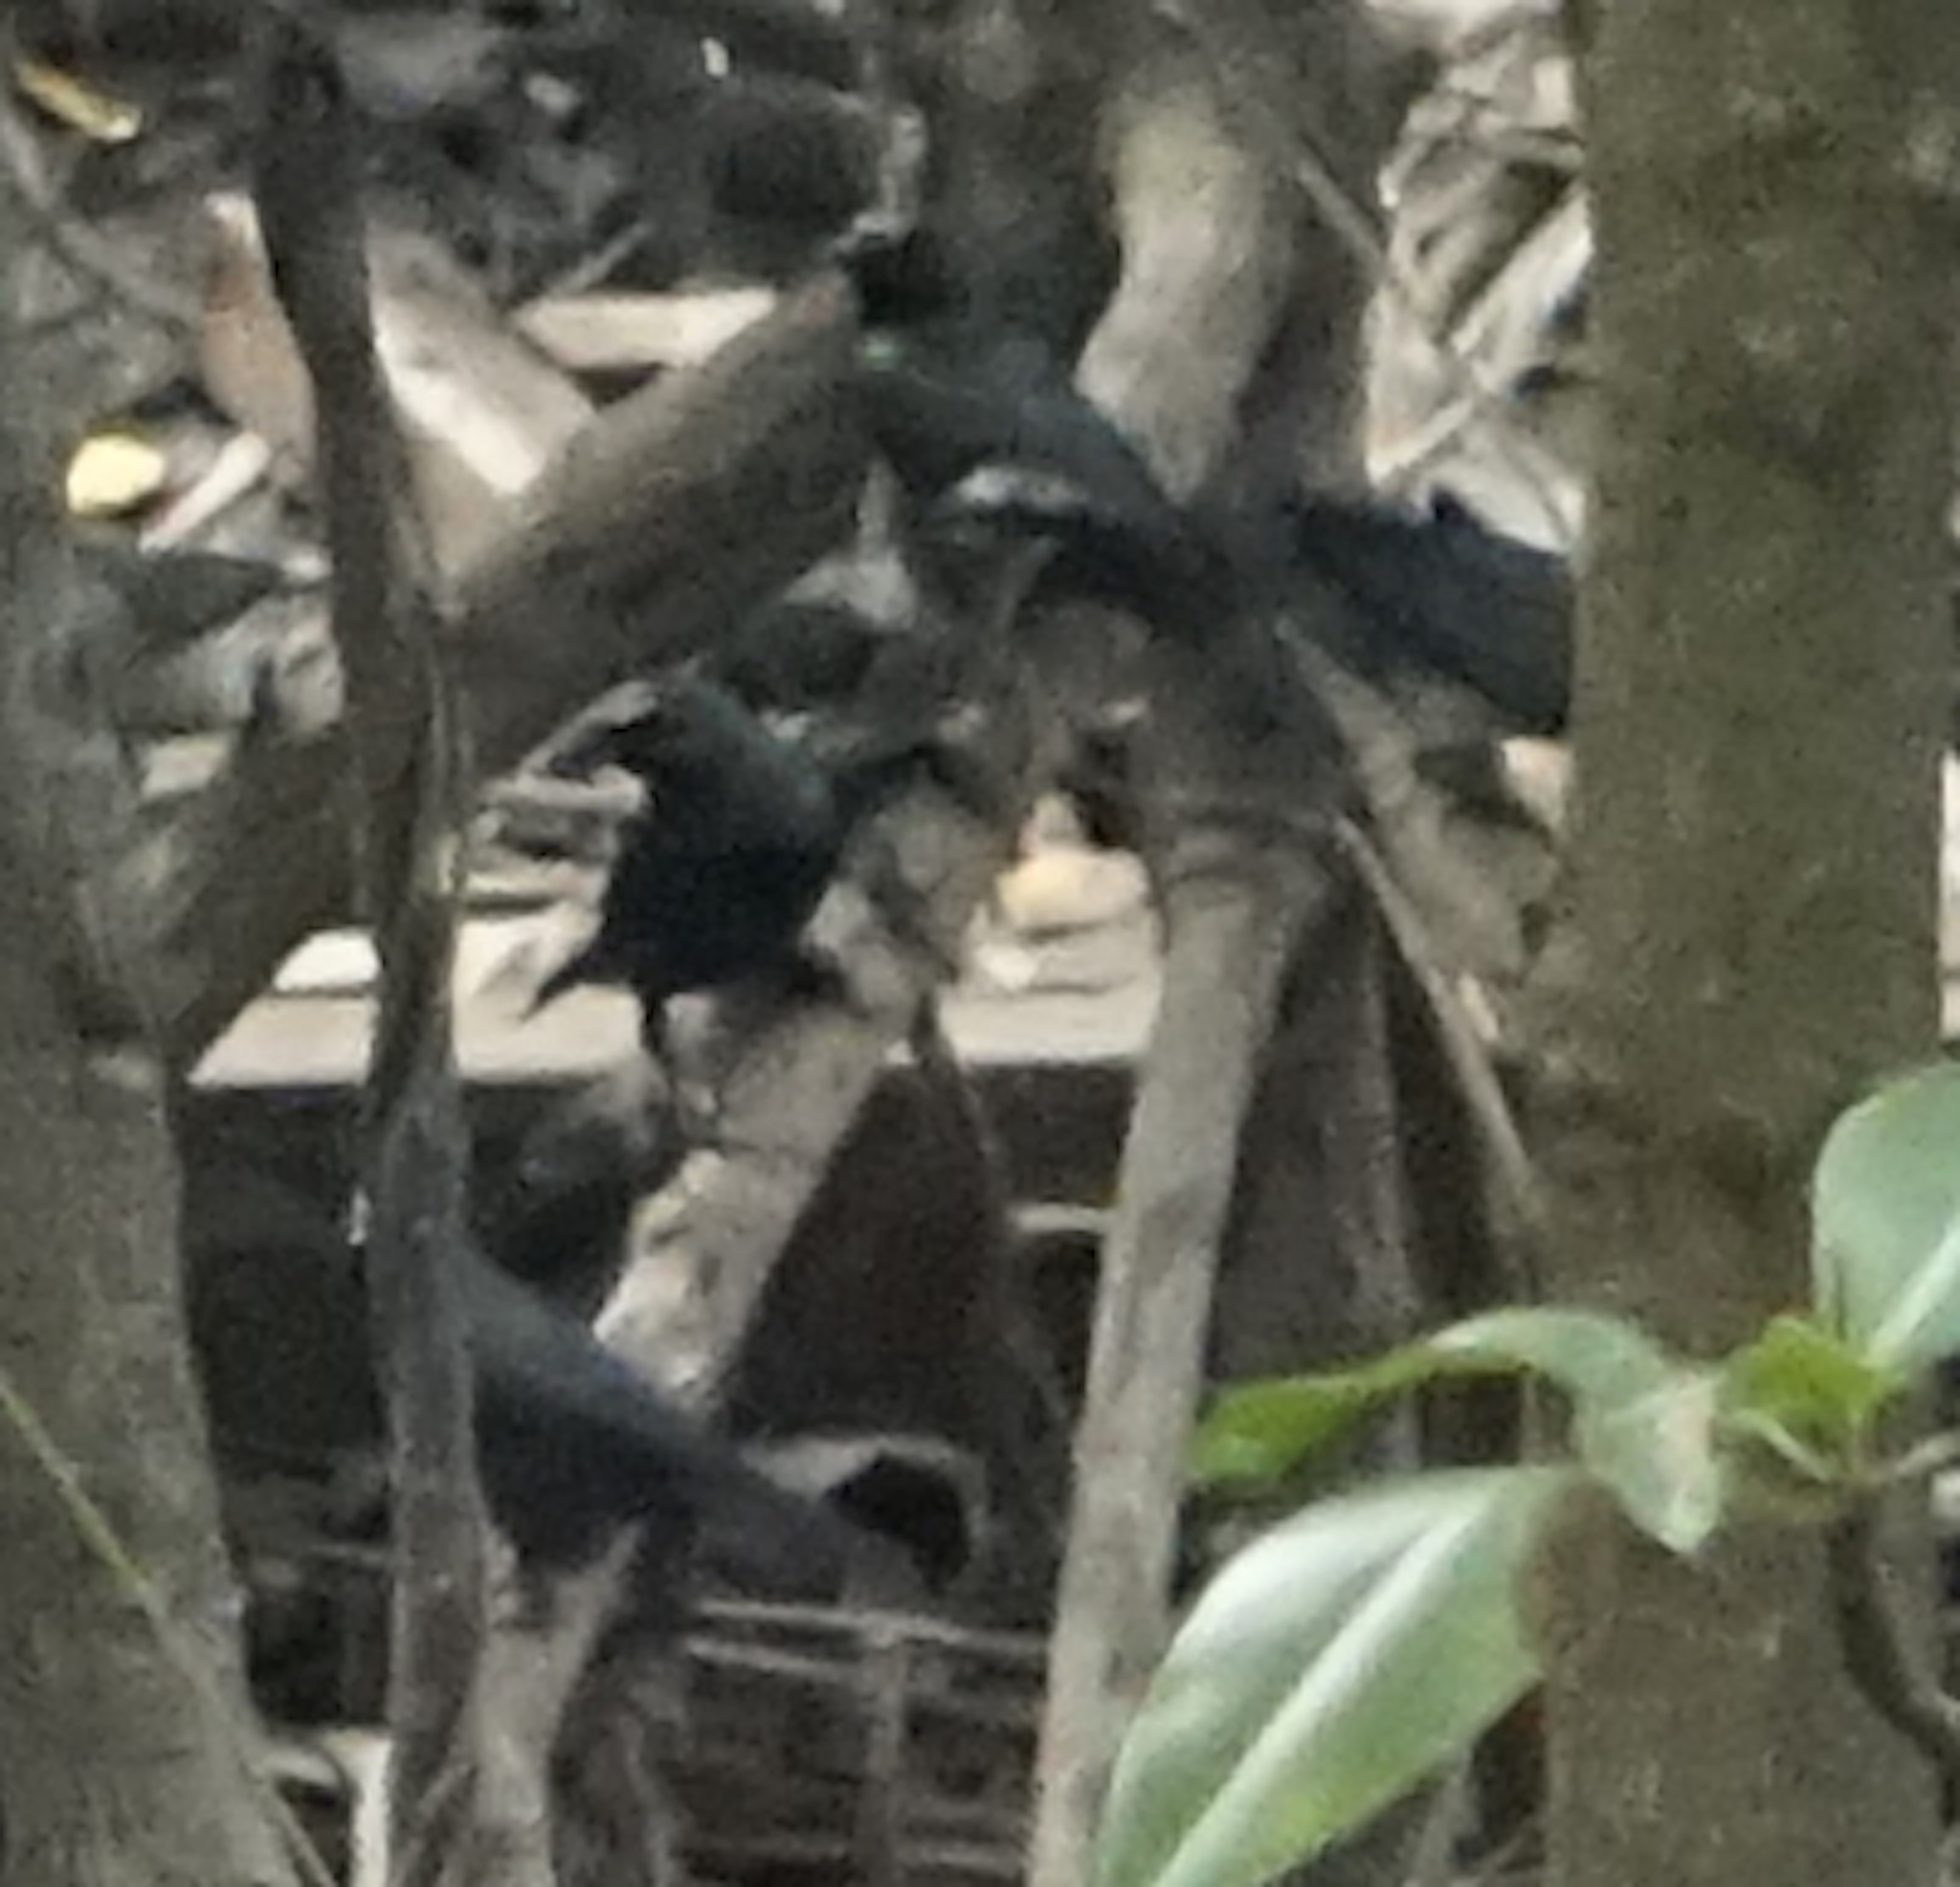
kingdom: Animalia
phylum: Chordata
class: Aves
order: Passeriformes
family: Sturnidae
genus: Aplonis
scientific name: Aplonis panayensis
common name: Asian glossy starling
